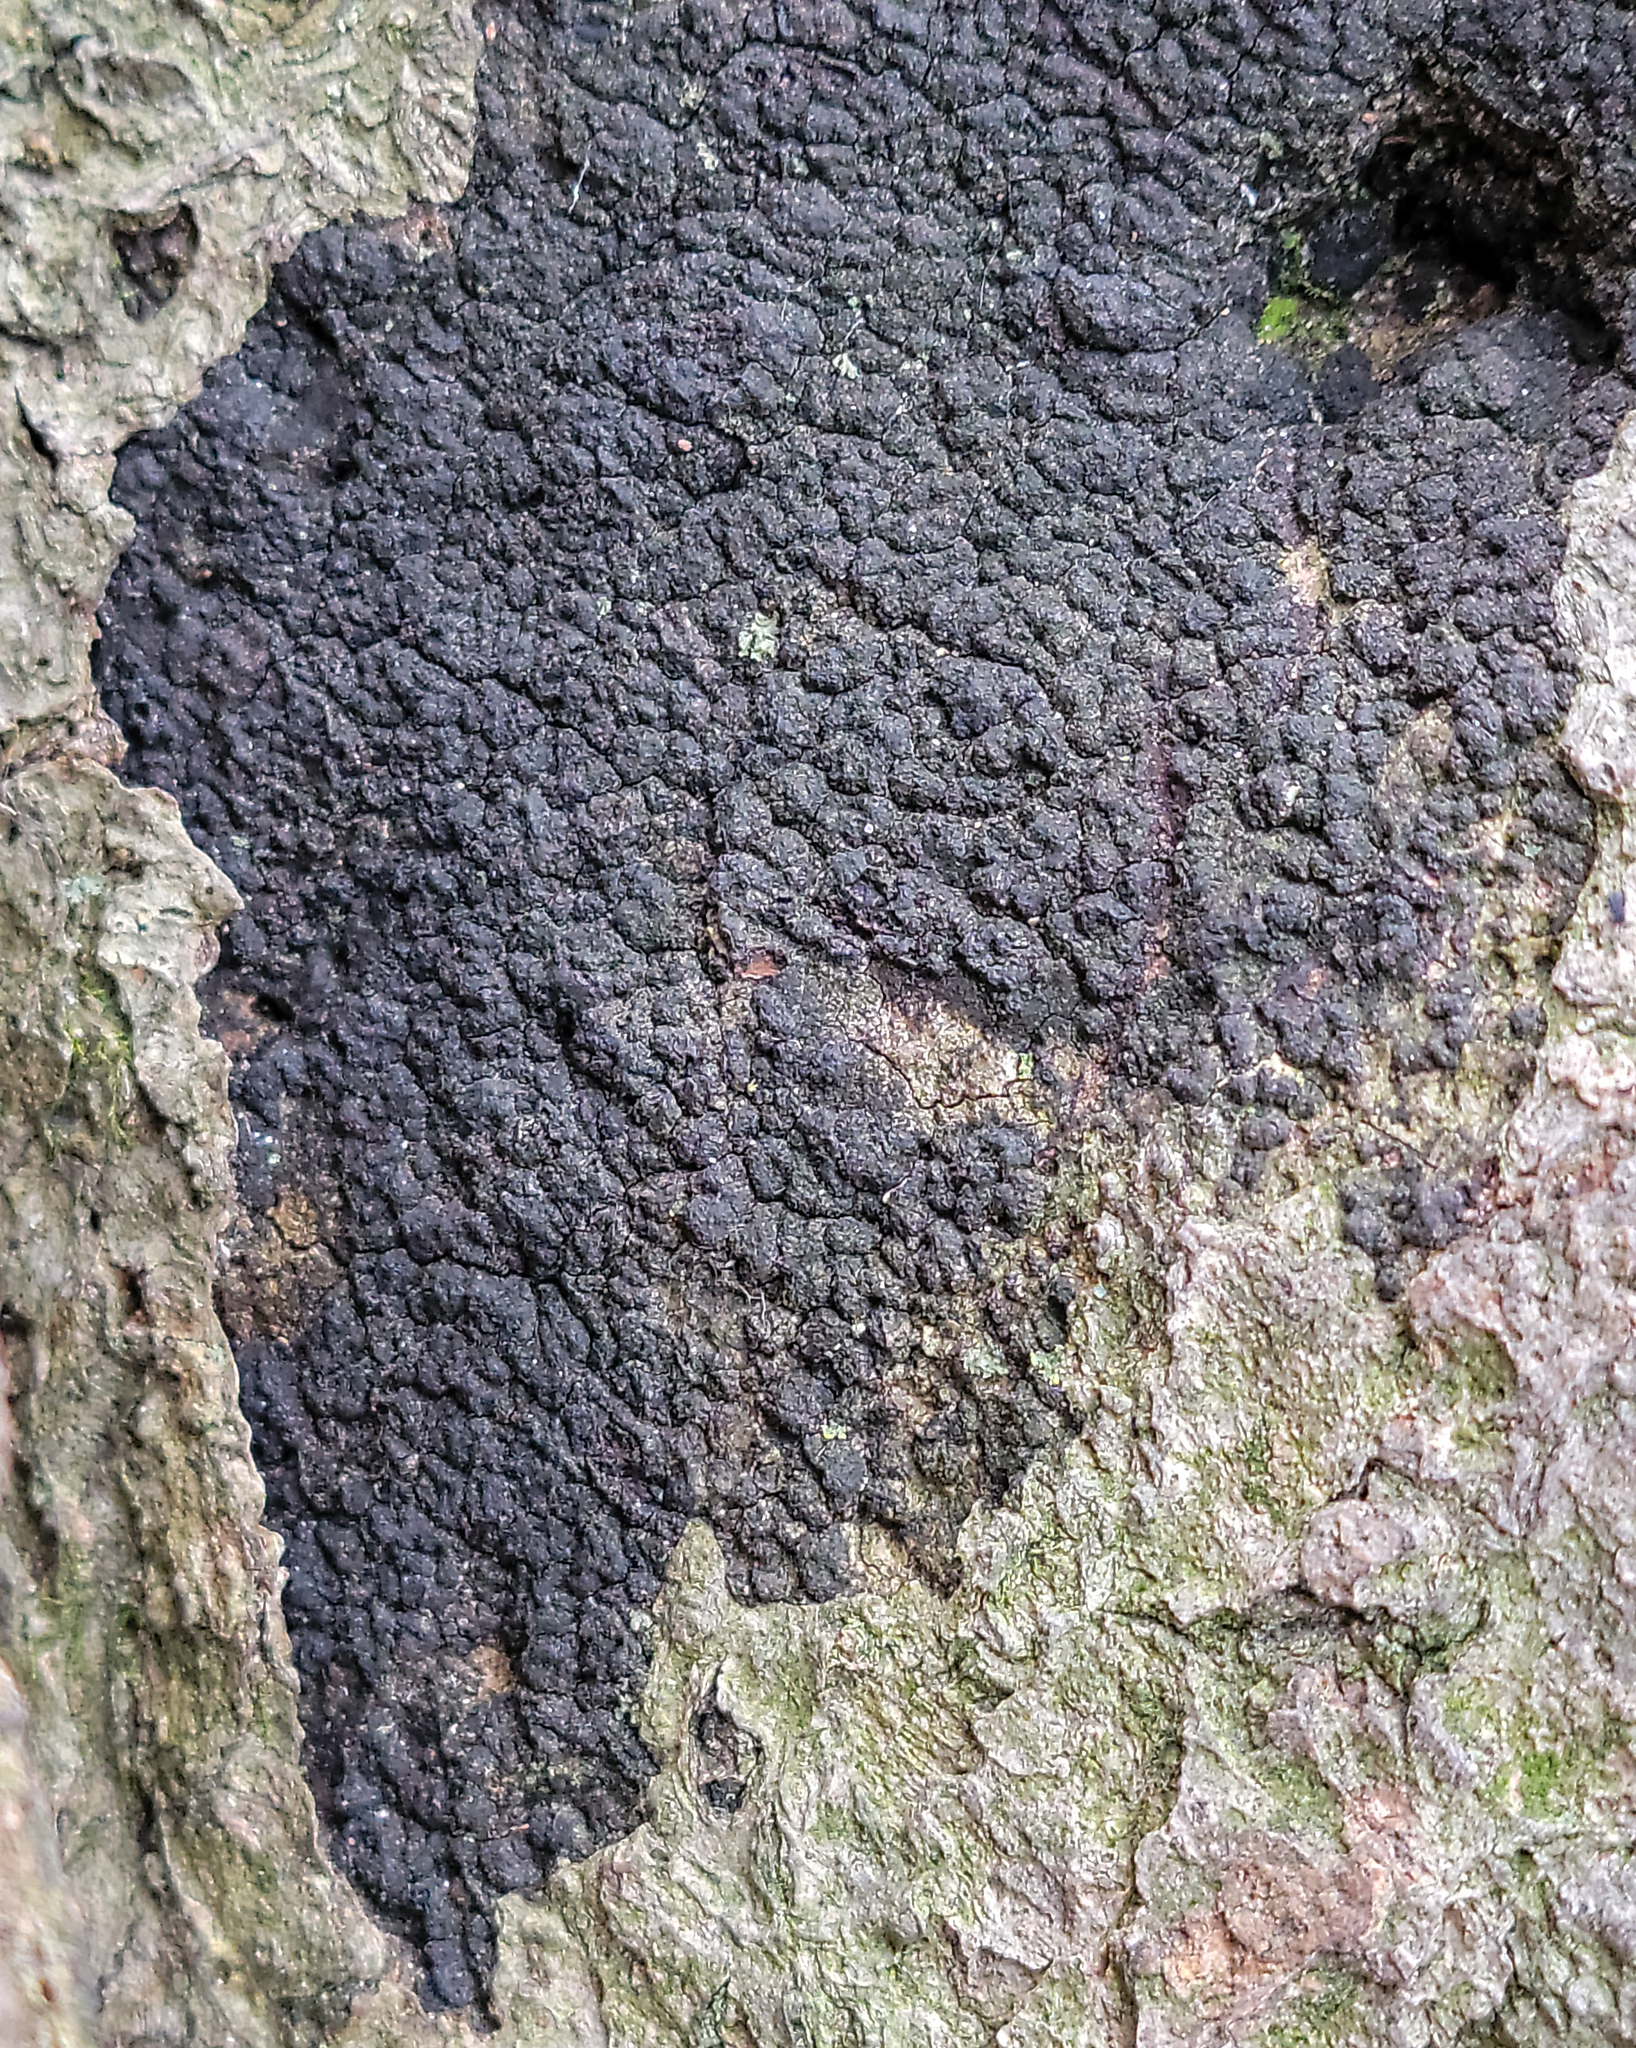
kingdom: Fungi
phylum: Ascomycota
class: Sordariomycetes
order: Xylariales
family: Graphostromataceae
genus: Biscogniauxia
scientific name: Biscogniauxia nummularia
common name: Beech tarcrust
